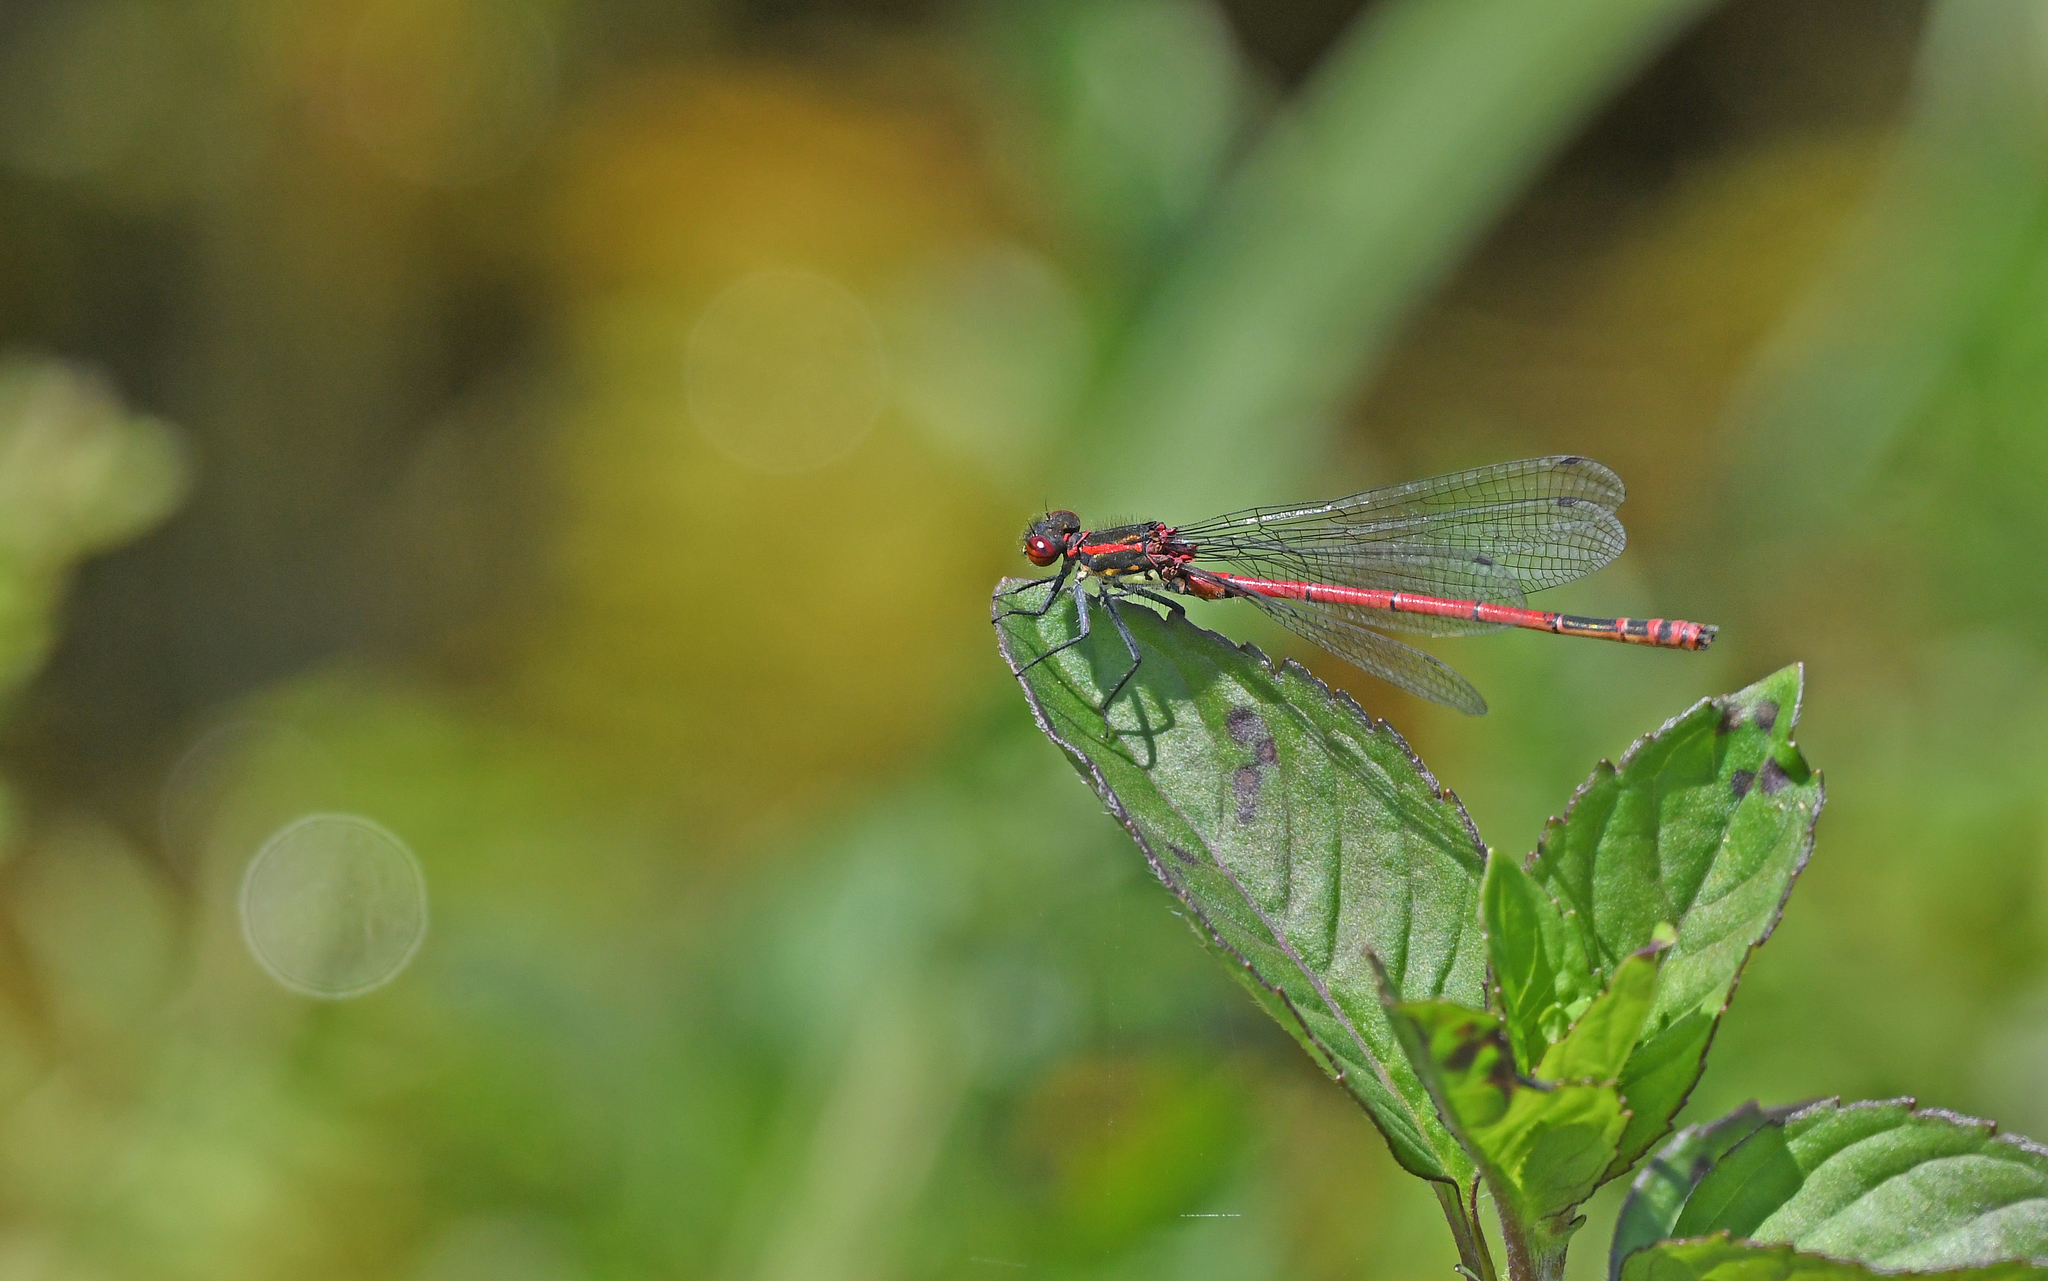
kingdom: Animalia
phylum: Arthropoda
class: Insecta
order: Odonata
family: Coenagrionidae
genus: Pyrrhosoma
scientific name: Pyrrhosoma nymphula
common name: Large red damsel
